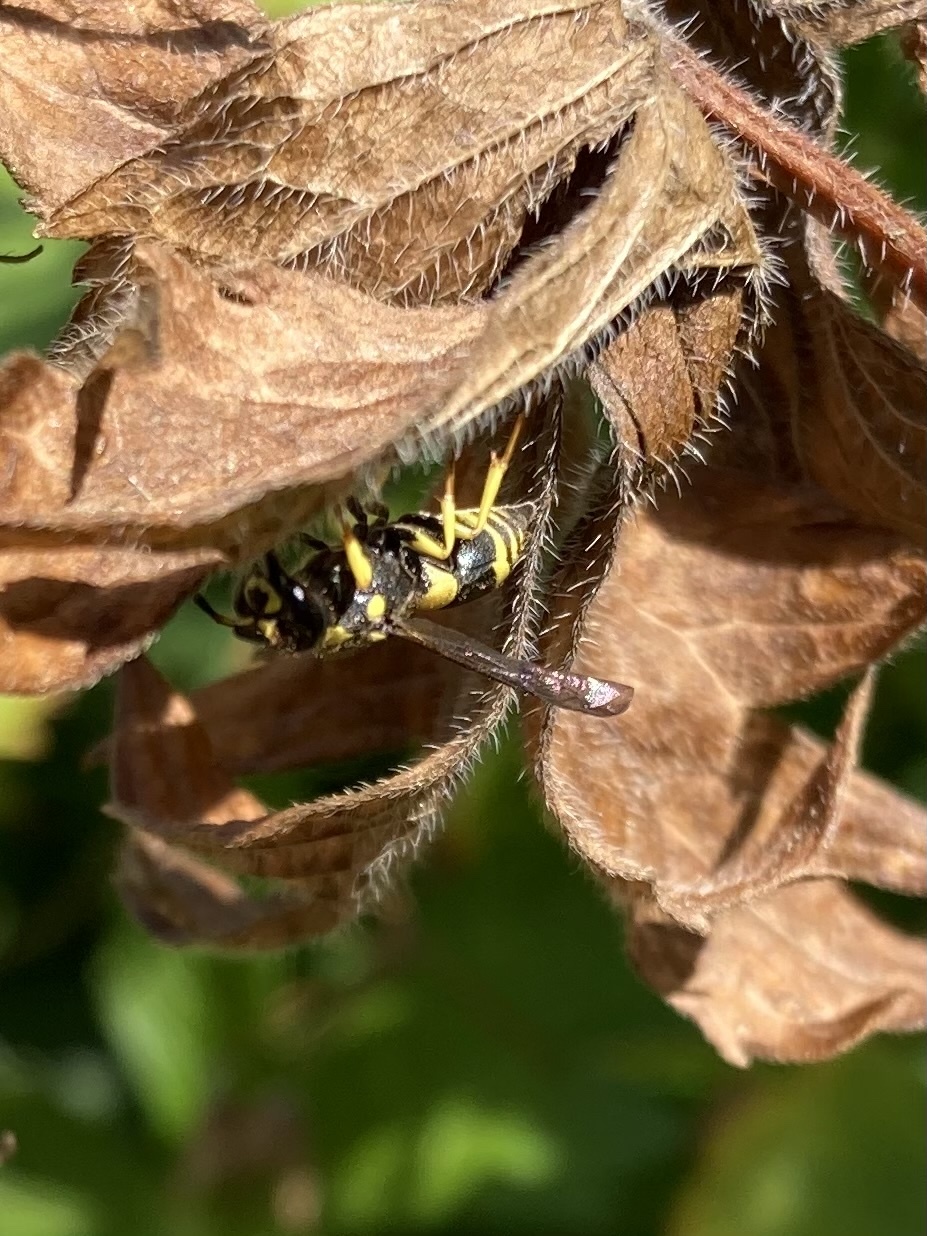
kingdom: Animalia
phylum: Arthropoda
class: Insecta
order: Hymenoptera
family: Vespidae
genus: Ancistrocerus
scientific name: Ancistrocerus gazella
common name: European tube wasp
